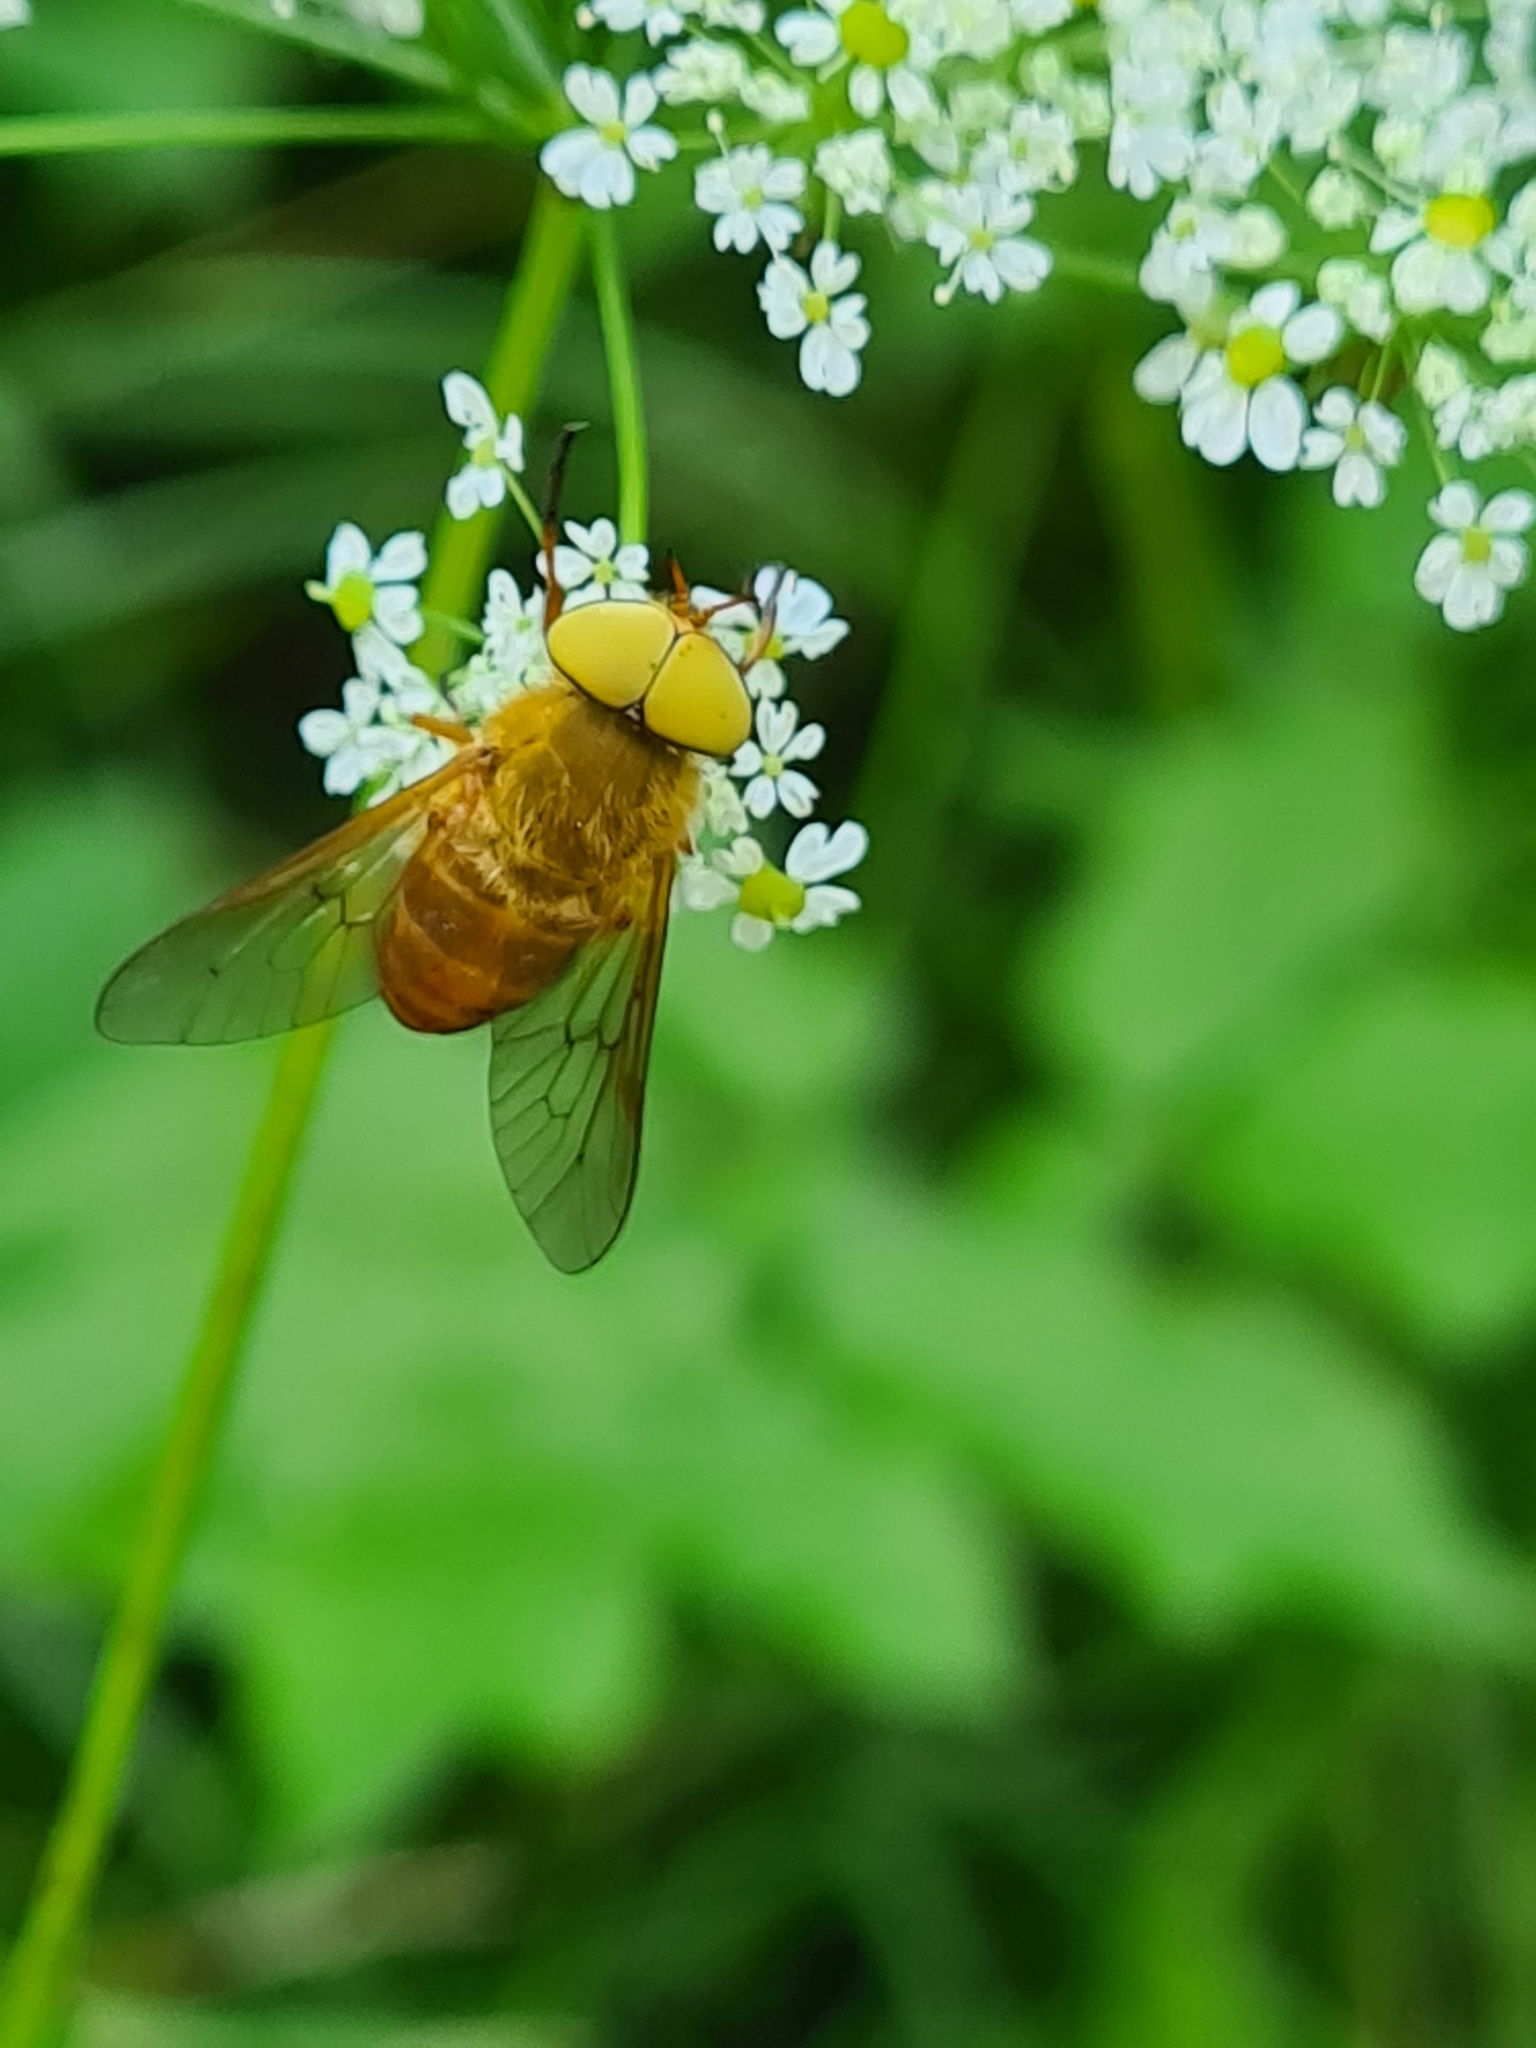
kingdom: Animalia
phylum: Arthropoda
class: Insecta
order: Diptera
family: Tabanidae
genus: Silvius
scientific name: Silvius alpinus
